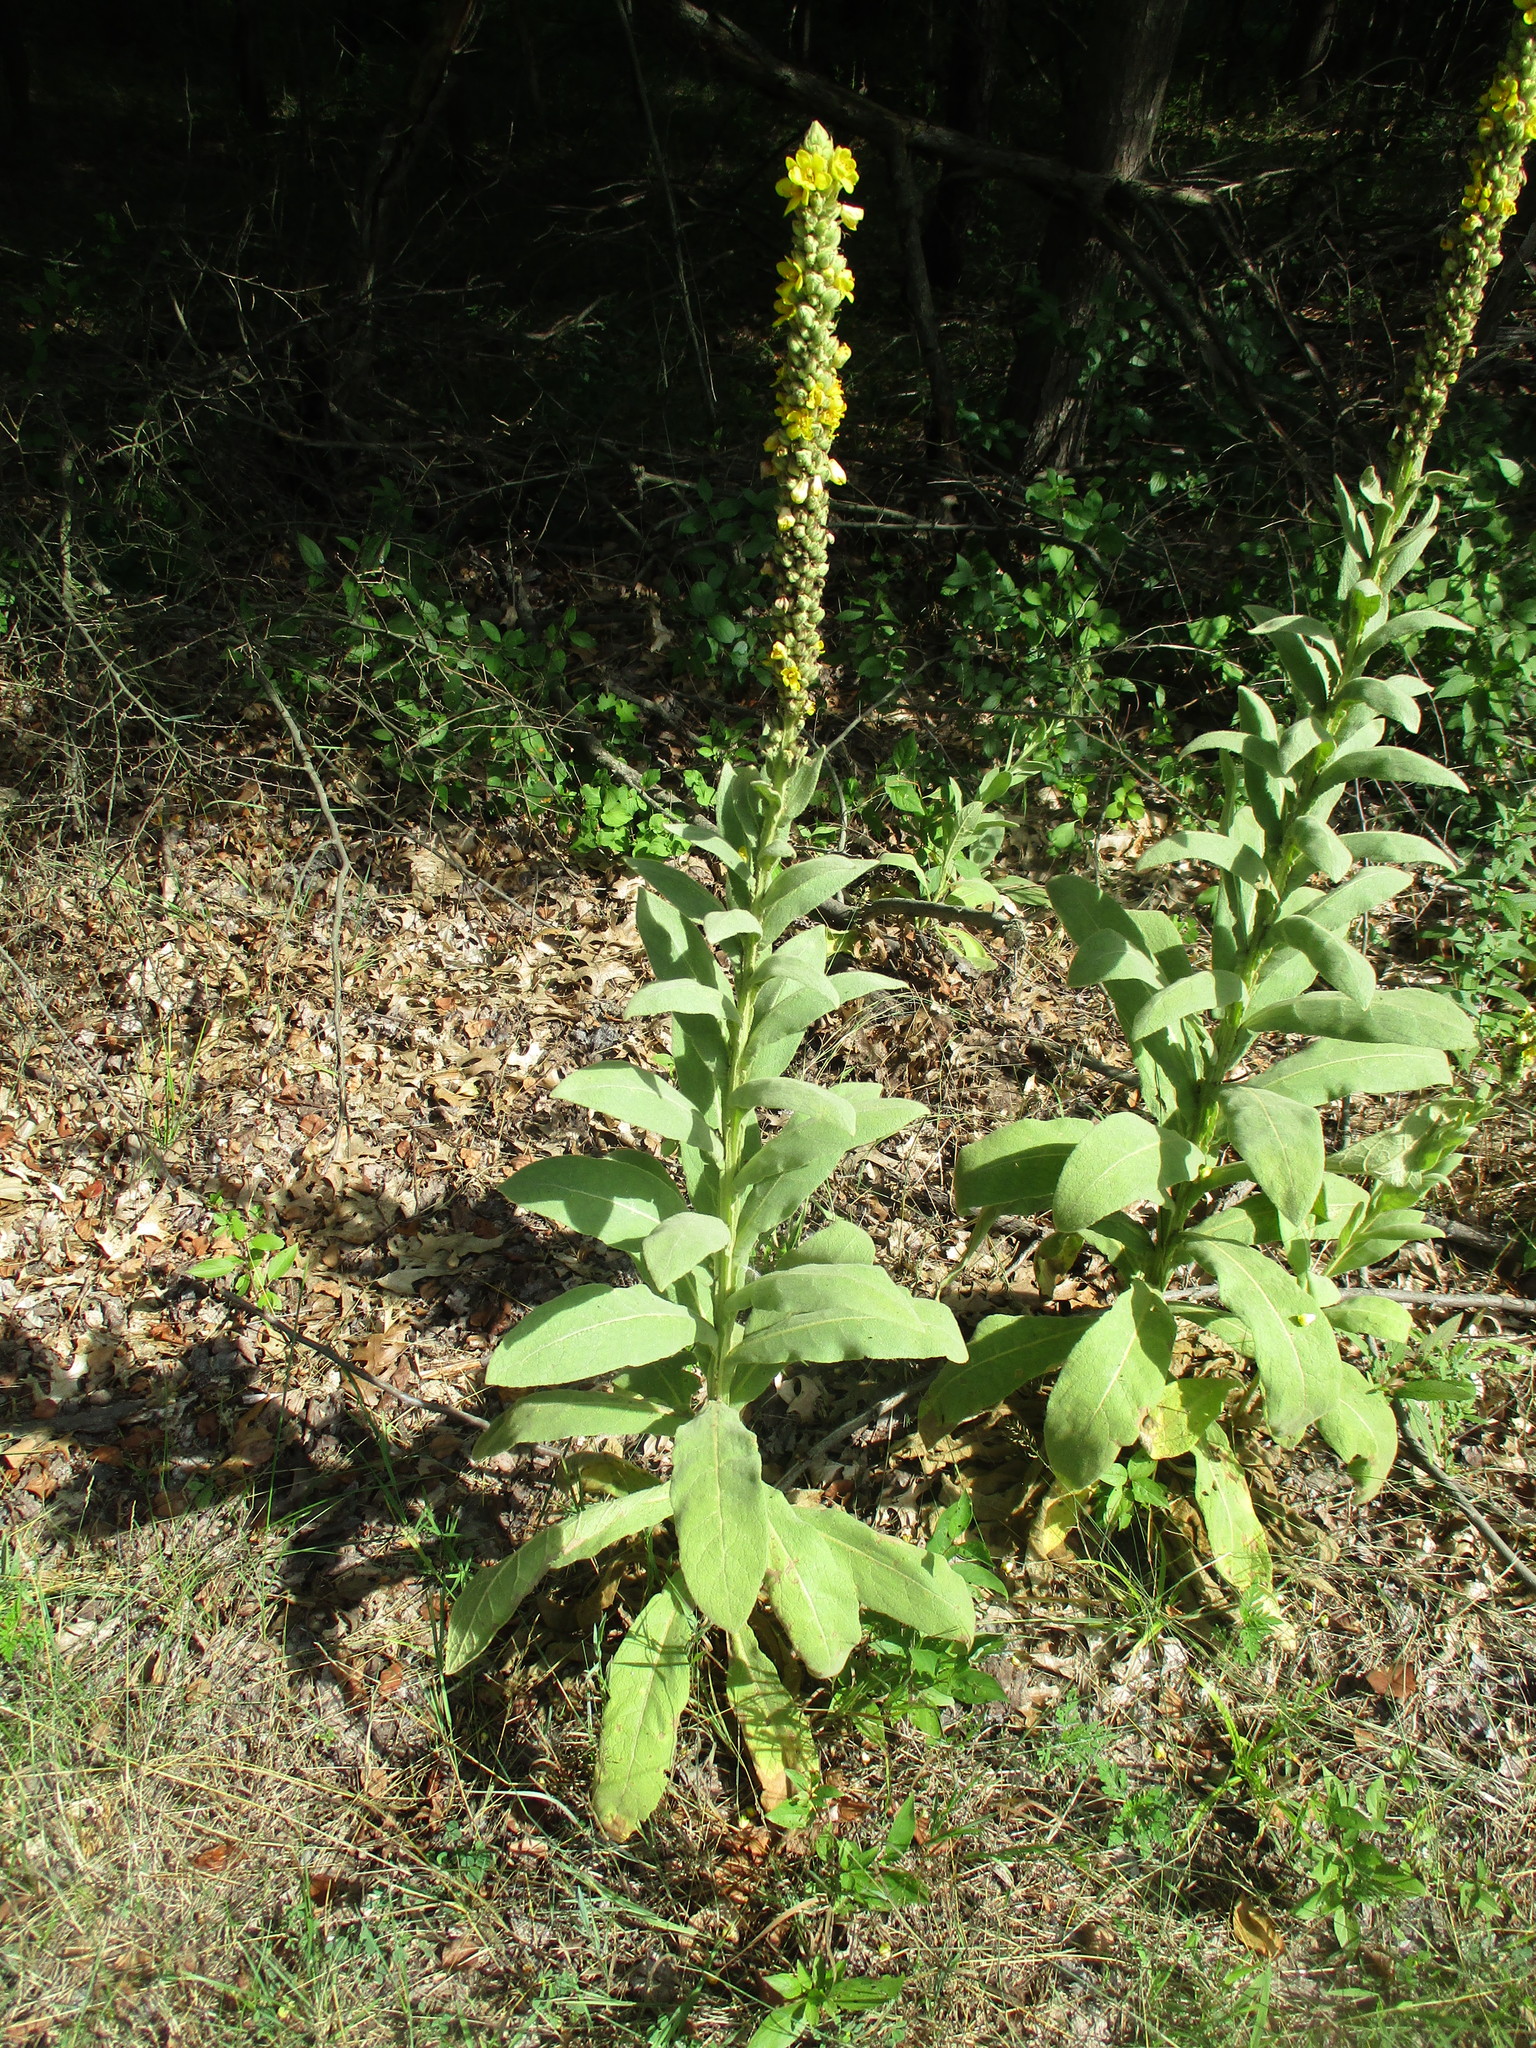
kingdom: Plantae
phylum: Tracheophyta
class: Magnoliopsida
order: Lamiales
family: Scrophulariaceae
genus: Verbascum
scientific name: Verbascum thapsus
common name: Common mullein
